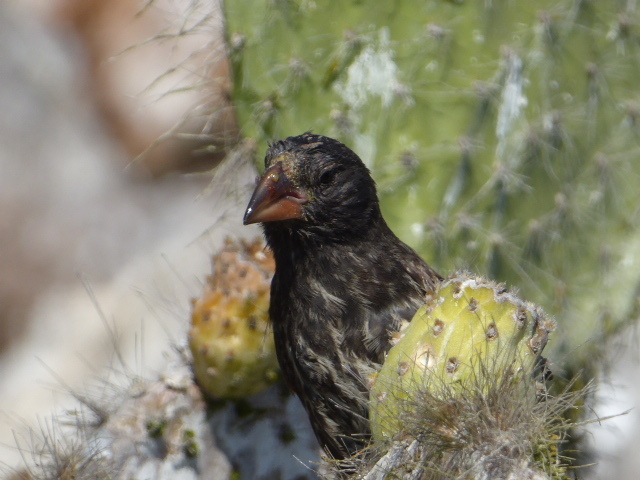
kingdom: Animalia
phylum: Chordata
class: Aves
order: Passeriformes
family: Thraupidae
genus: Geospiza
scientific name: Geospiza scandens
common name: Common cactus-finch
